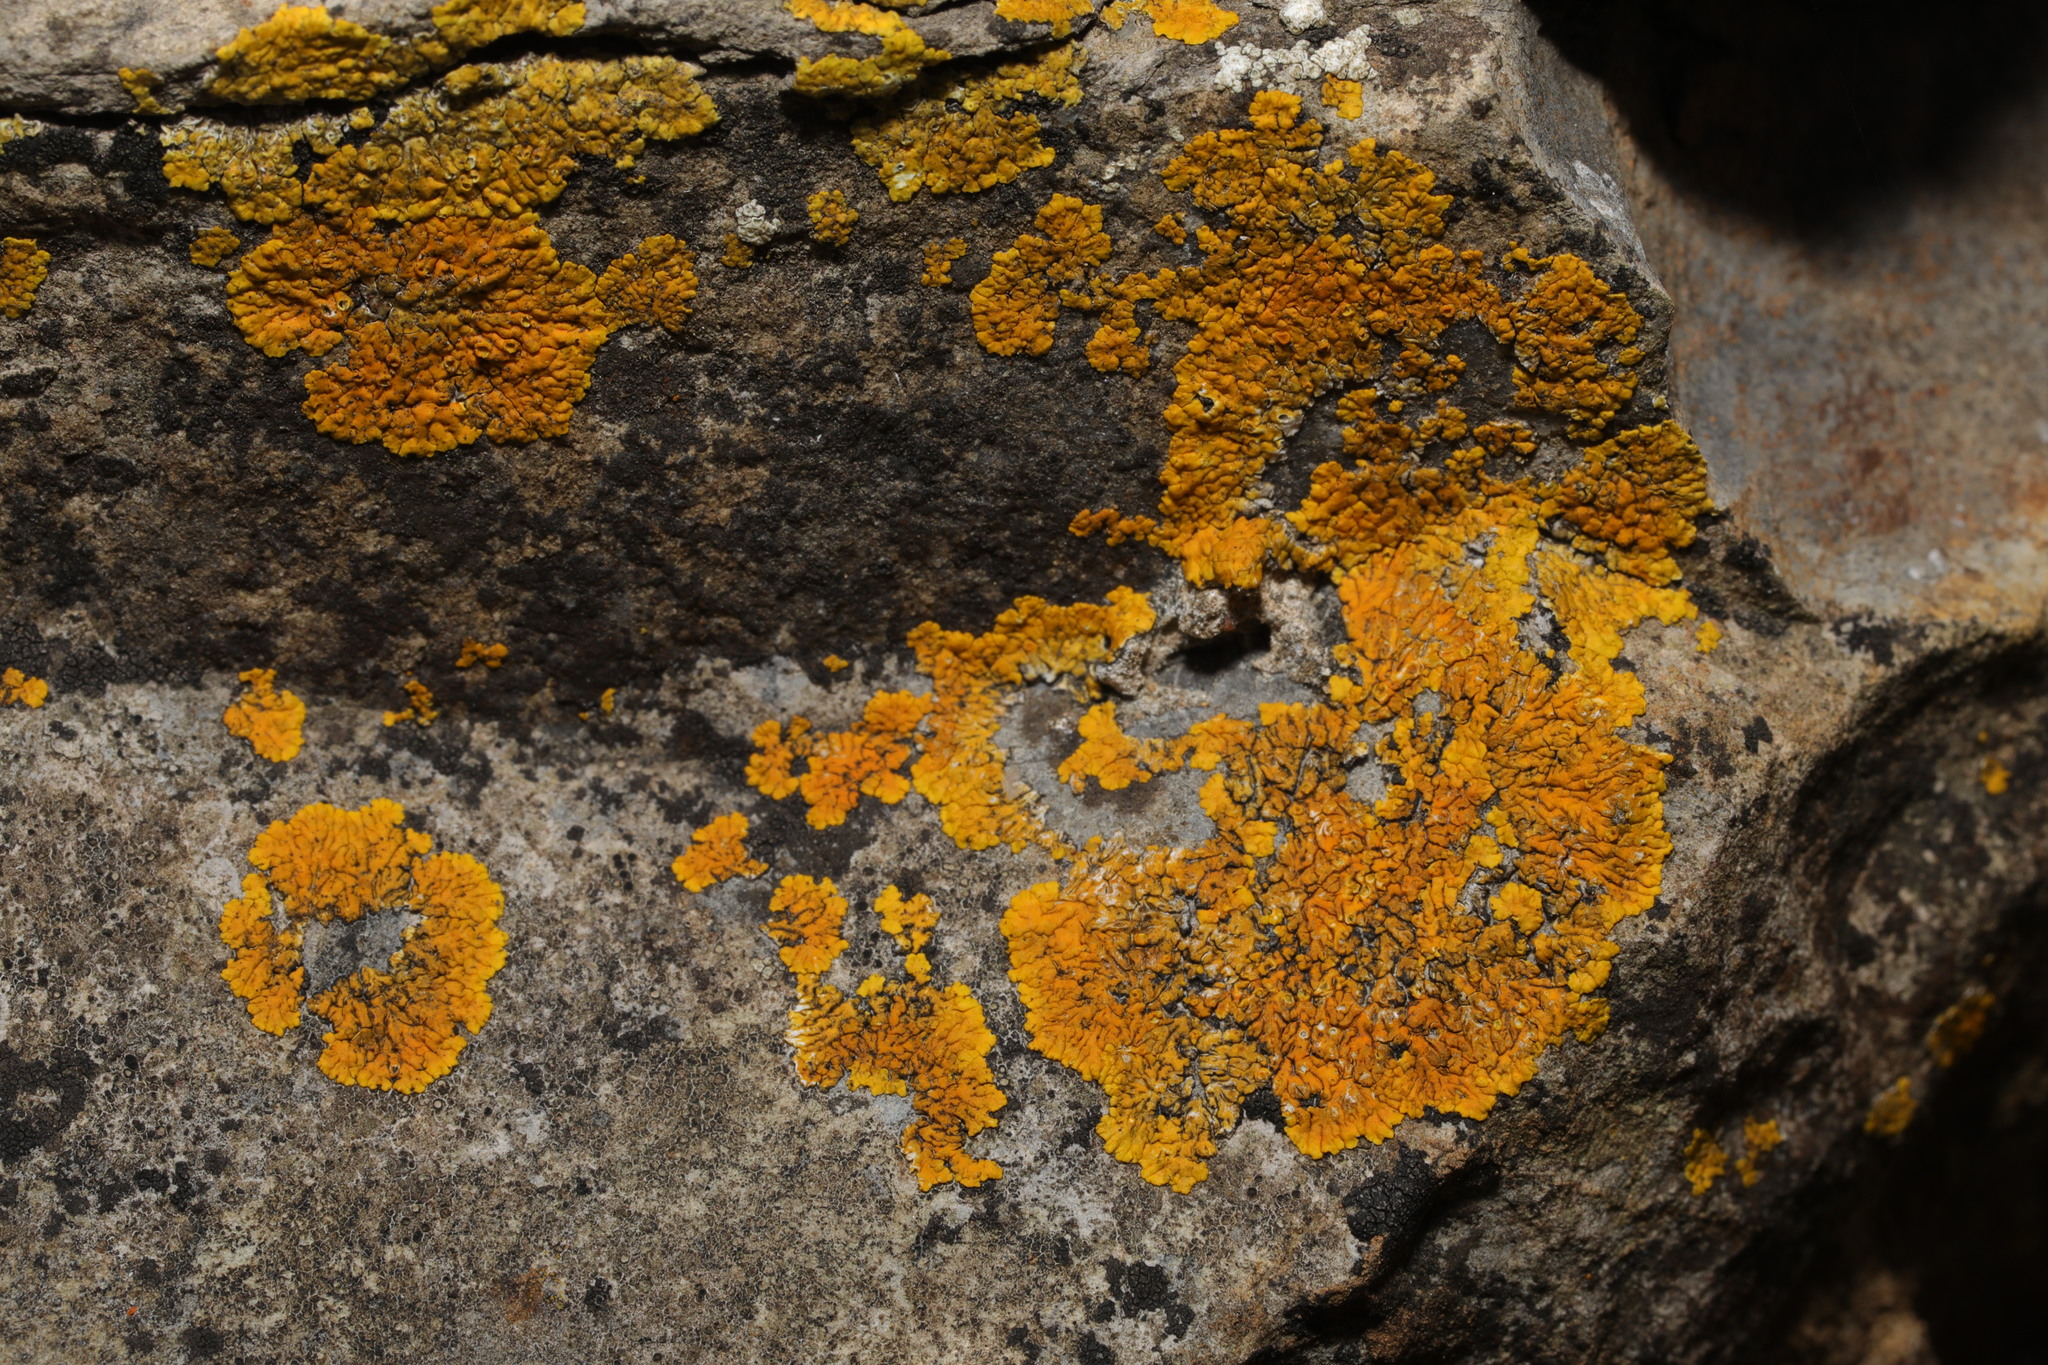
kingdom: Fungi
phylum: Ascomycota
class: Lecanoromycetes
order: Teloschistales
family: Teloschistaceae
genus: Variospora
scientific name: Variospora flavescens
